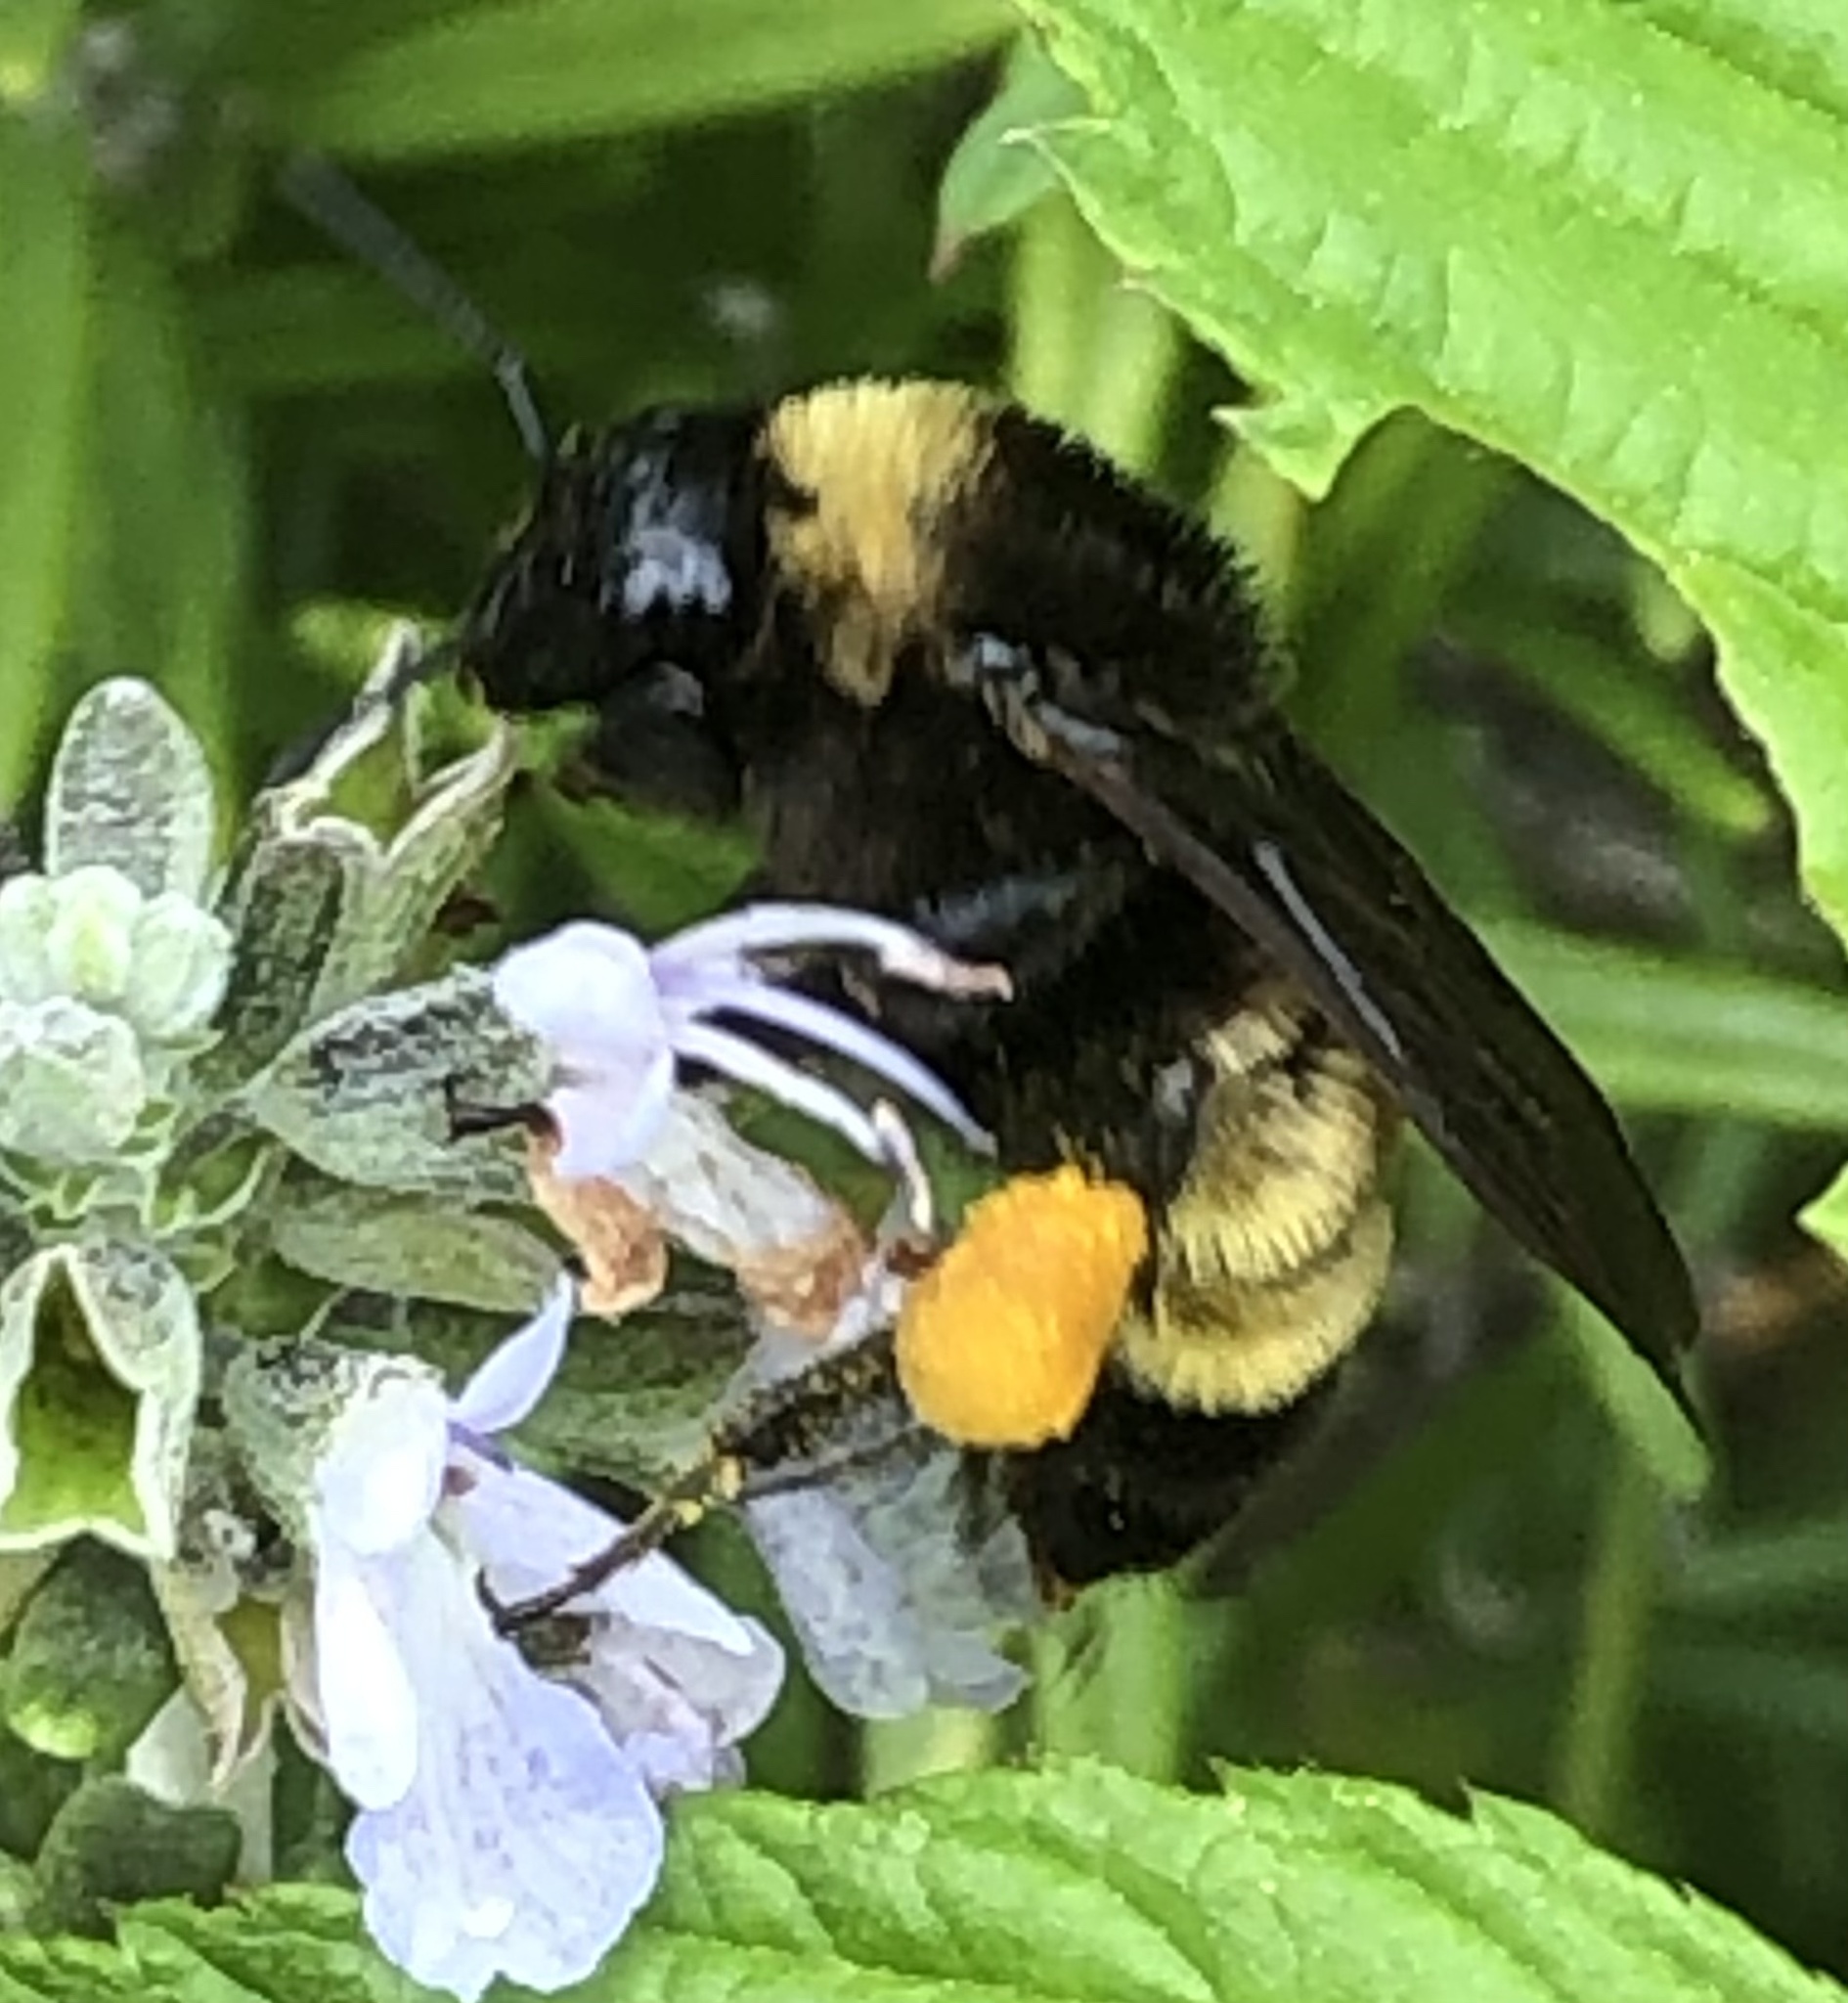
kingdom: Animalia
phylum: Arthropoda
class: Insecta
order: Hymenoptera
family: Apidae
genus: Bombus
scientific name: Bombus pensylvanicus
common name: Bumble bee
